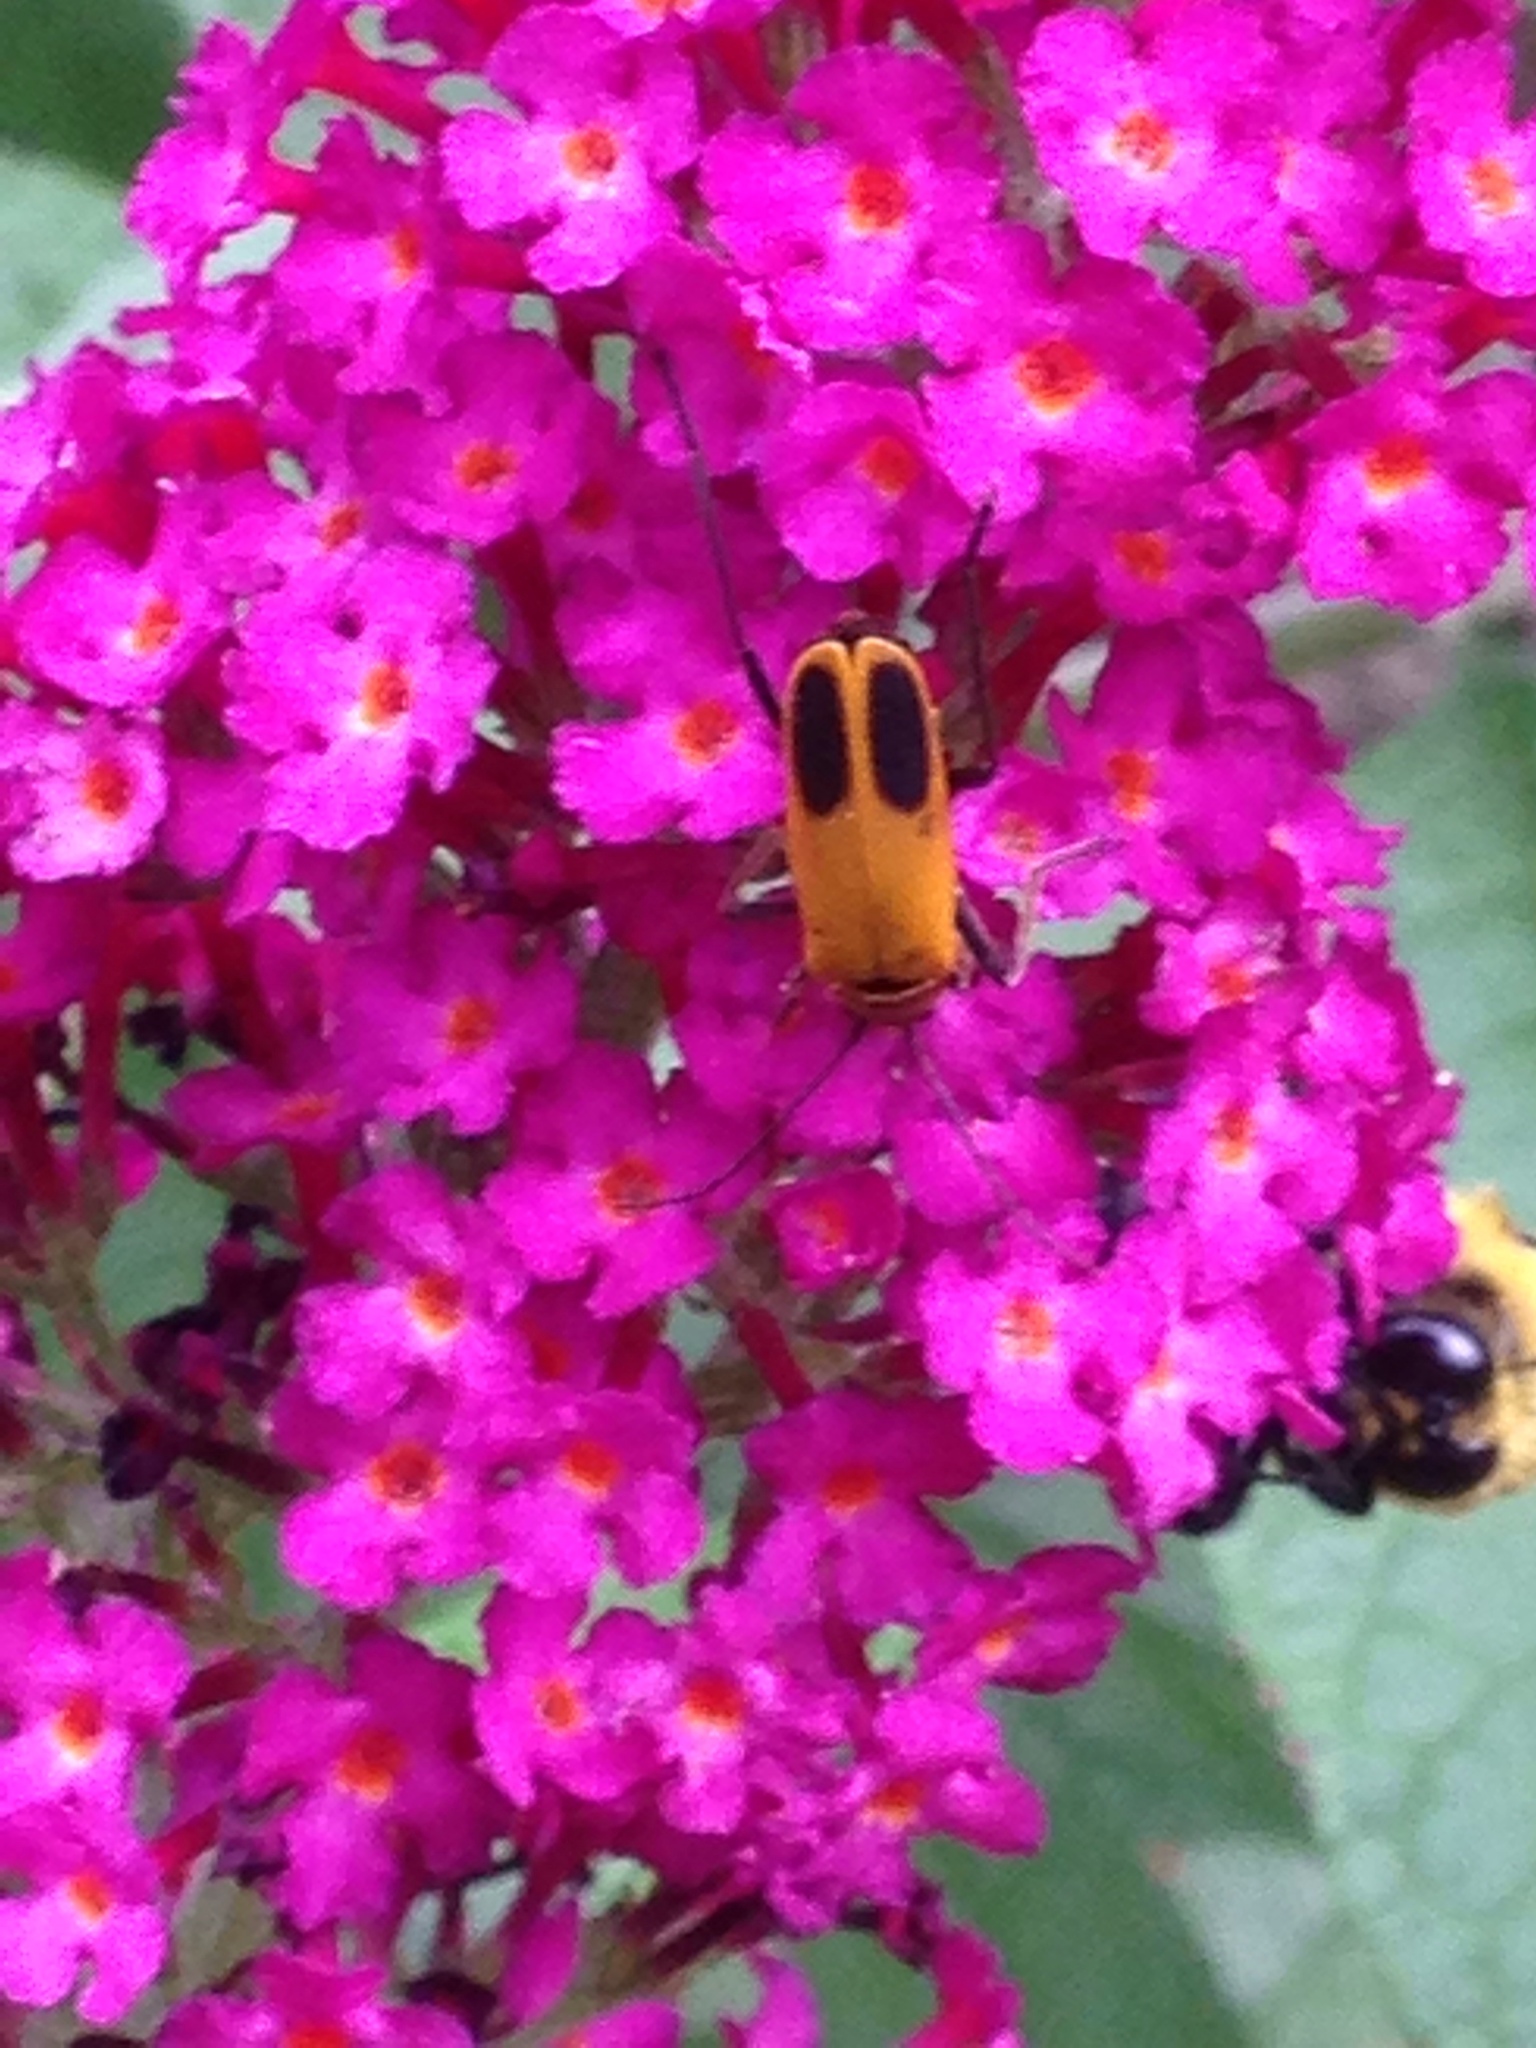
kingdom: Animalia
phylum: Arthropoda
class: Insecta
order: Coleoptera
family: Cantharidae
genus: Chauliognathus
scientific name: Chauliognathus pensylvanicus
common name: Goldenrod soldier beetle
